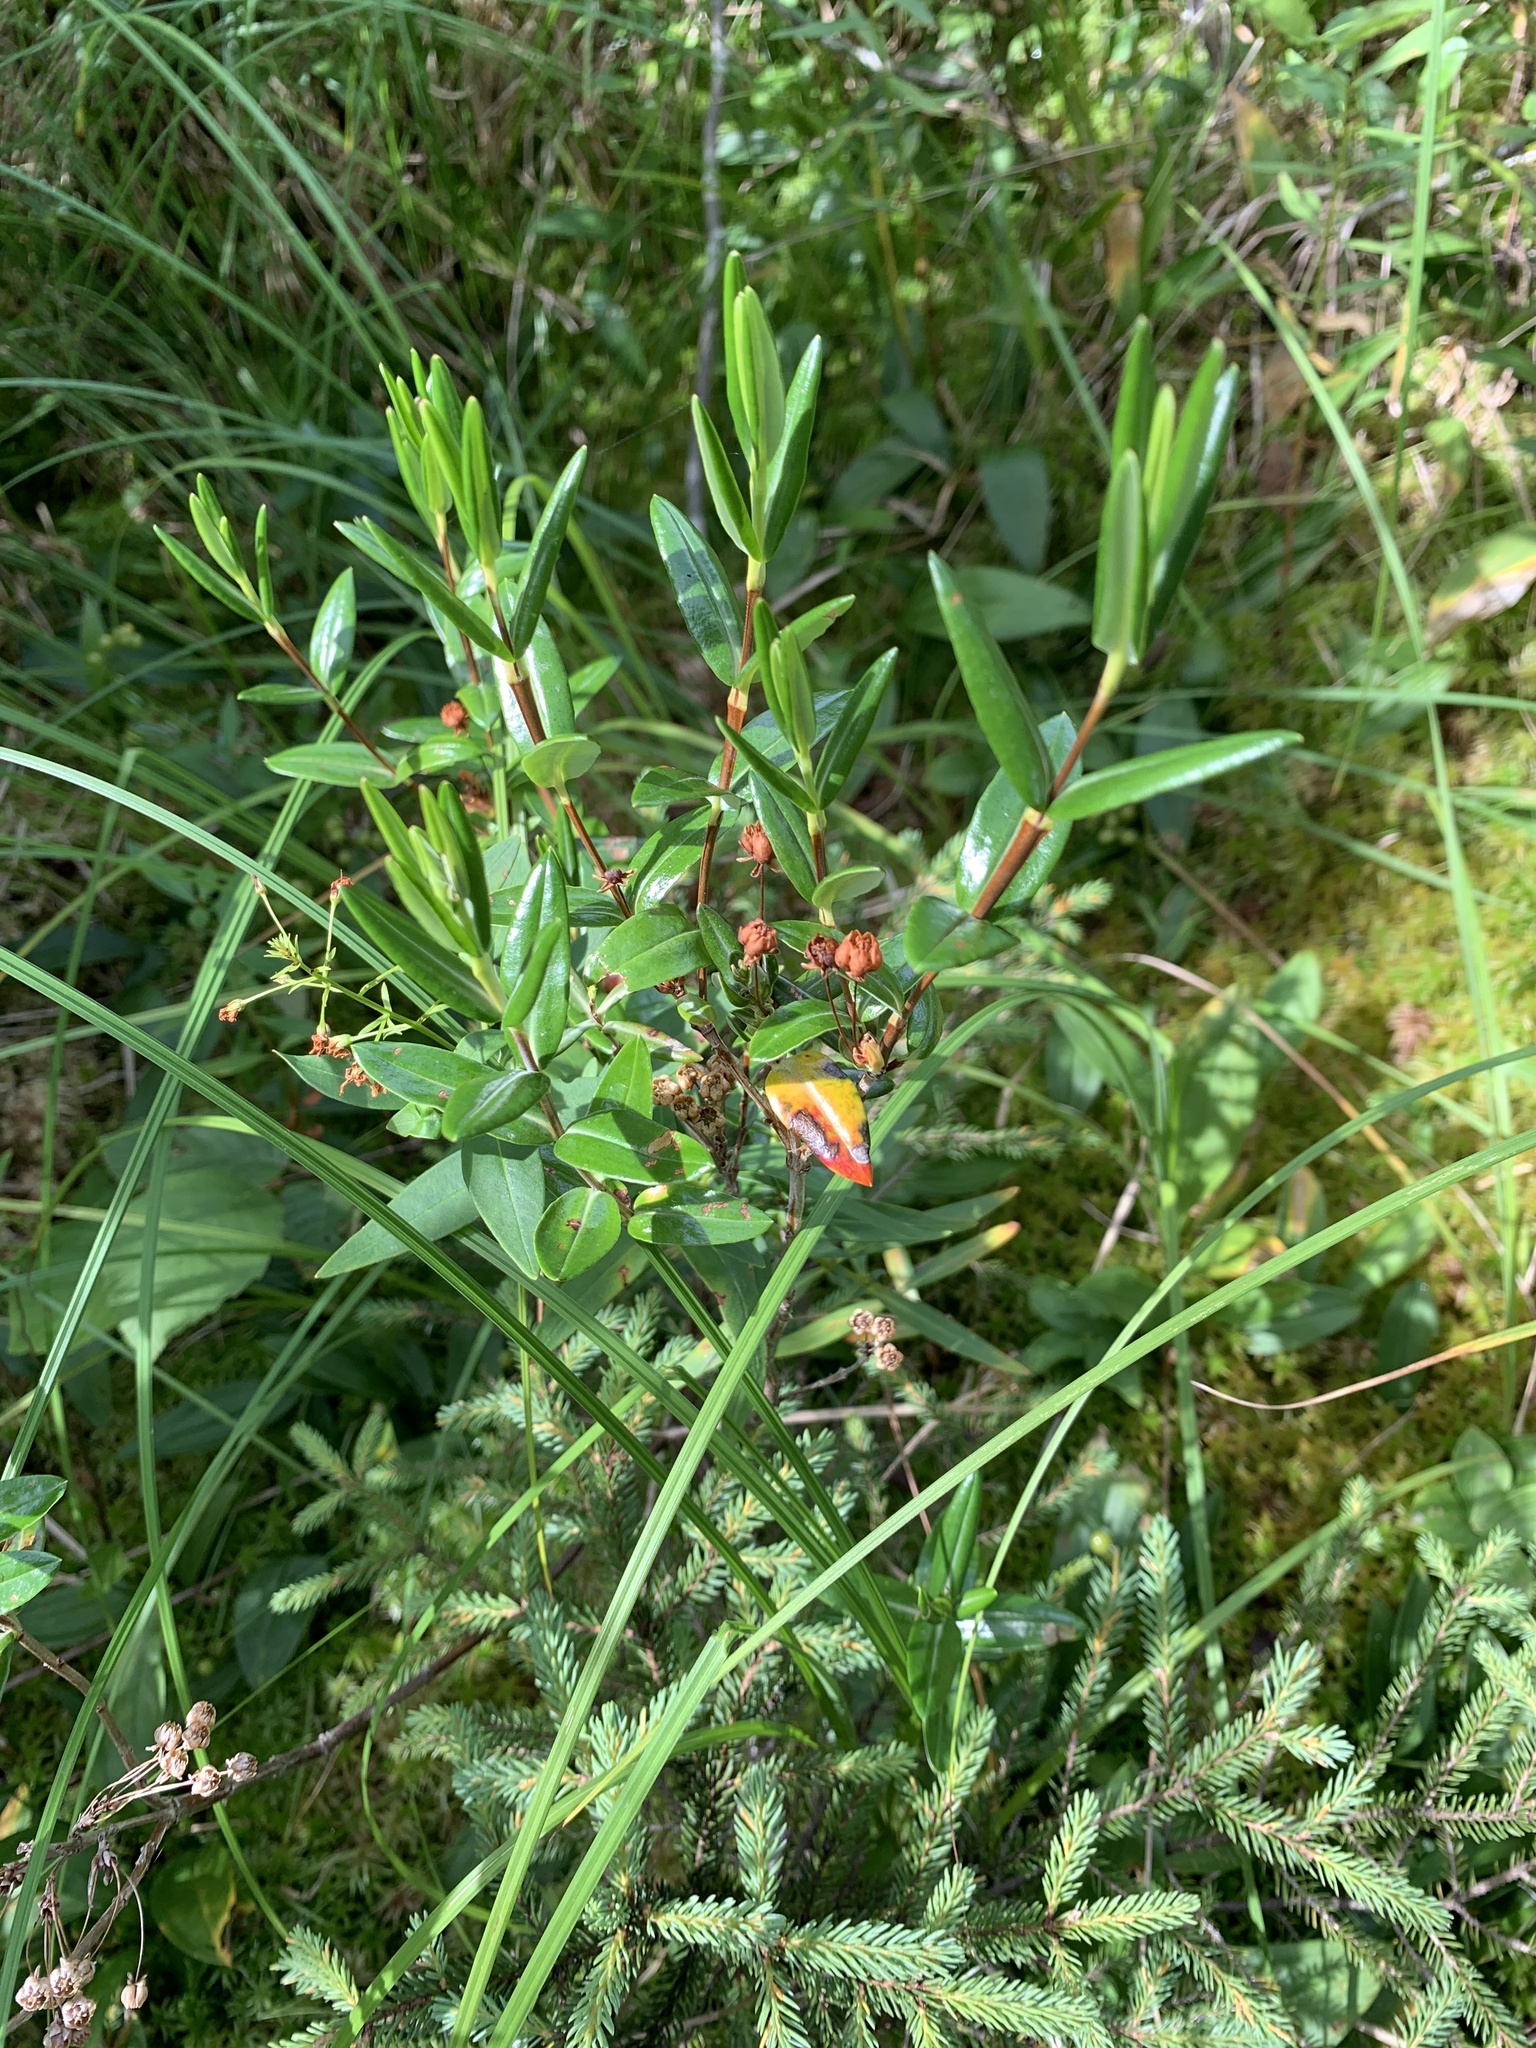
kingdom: Plantae
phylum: Tracheophyta
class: Magnoliopsida
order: Ericales
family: Ericaceae
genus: Kalmia
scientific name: Kalmia angustifolia
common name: Sheep-laurel
